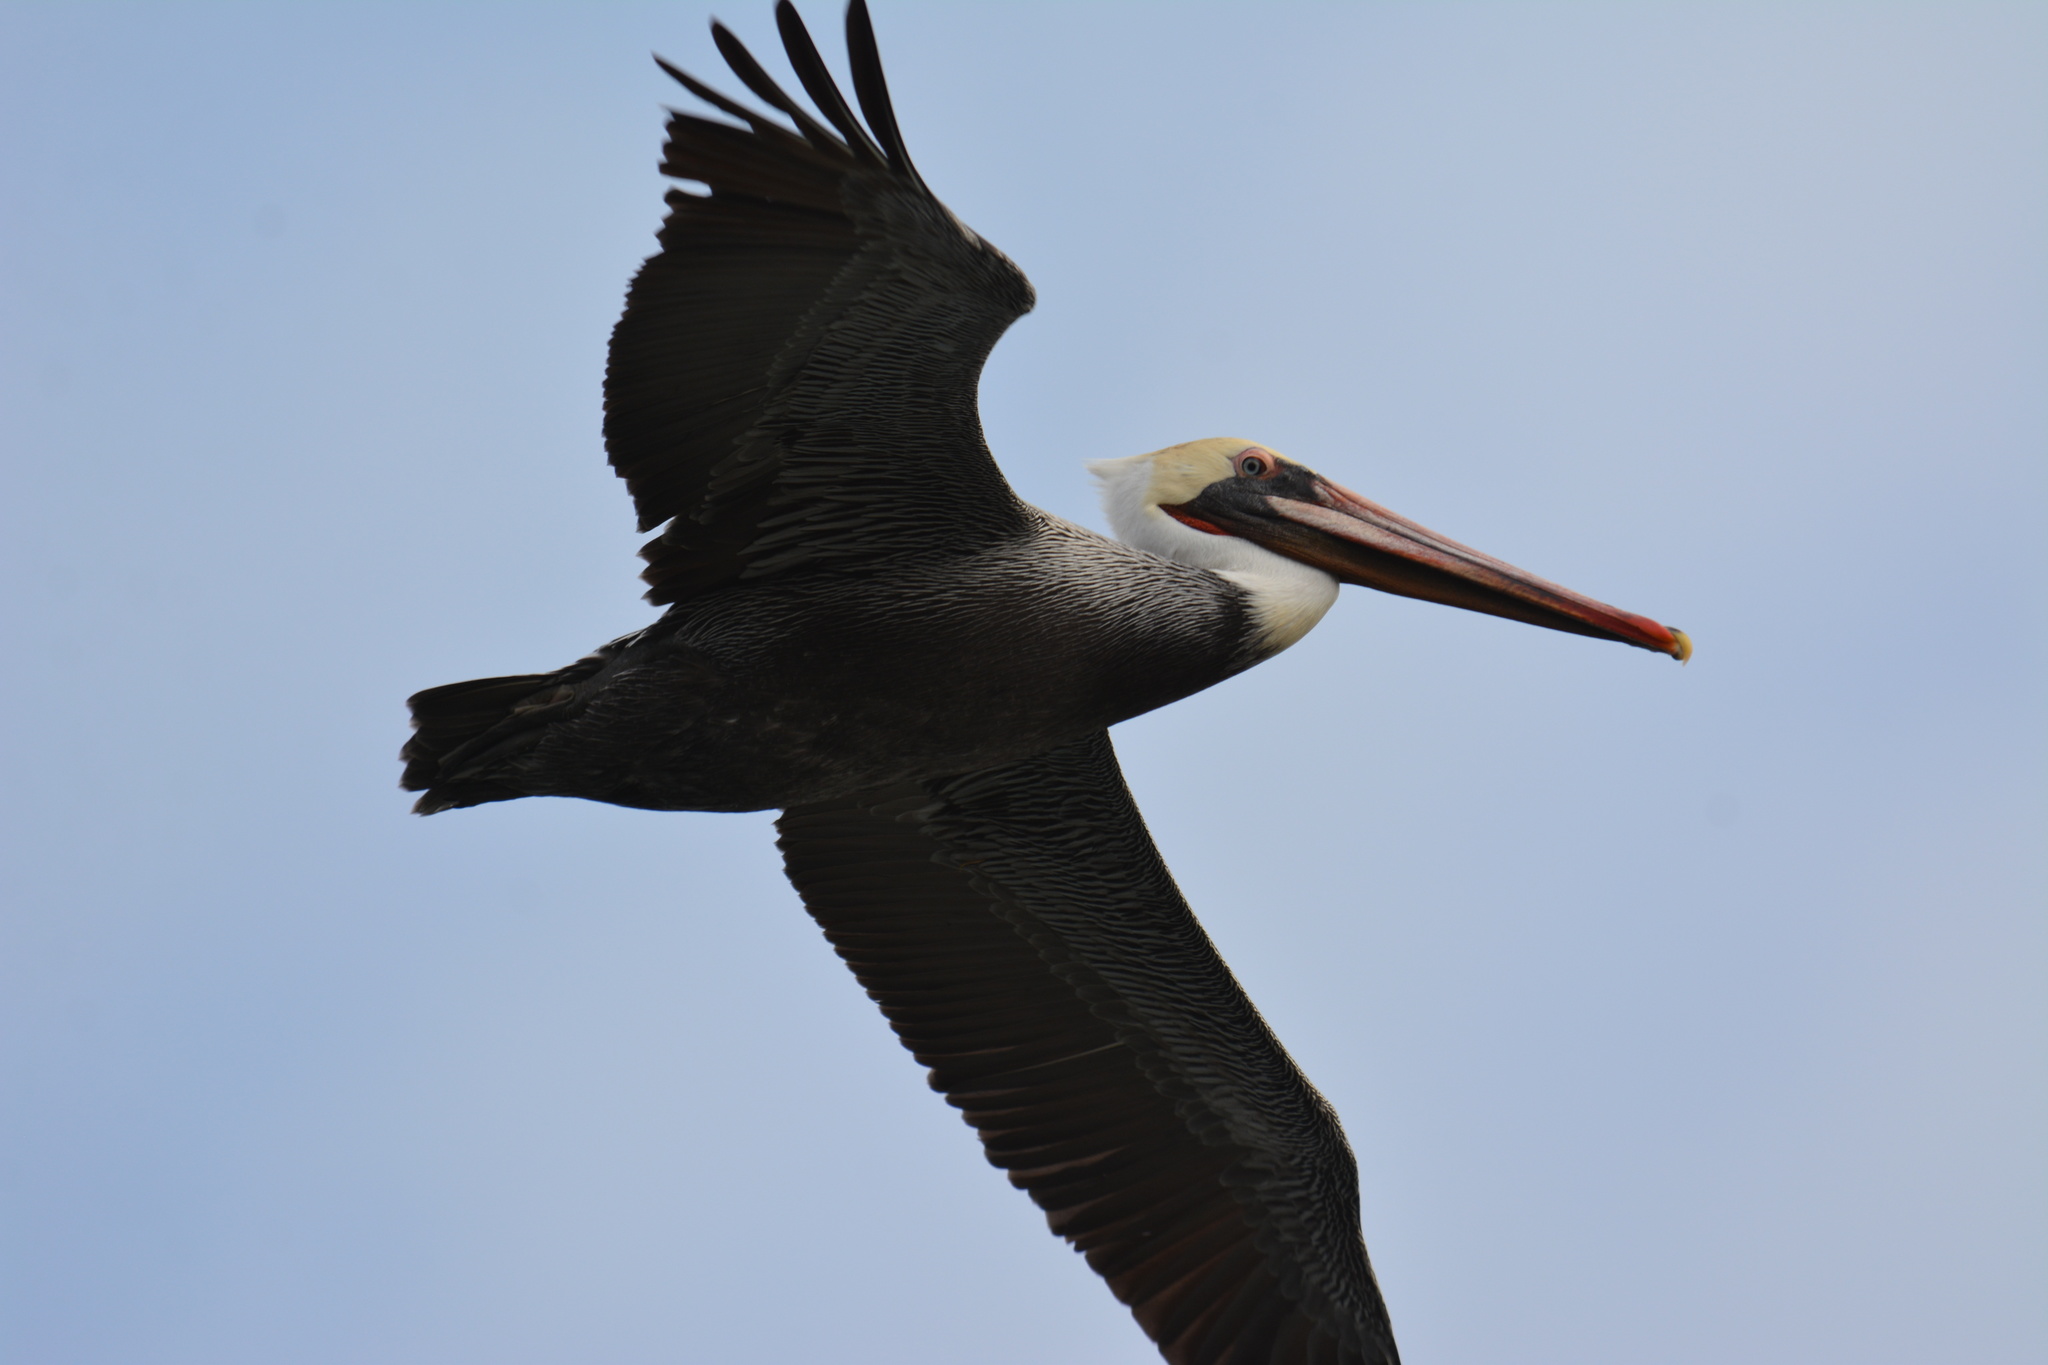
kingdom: Animalia
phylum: Chordata
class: Aves
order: Pelecaniformes
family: Pelecanidae
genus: Pelecanus
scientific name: Pelecanus occidentalis
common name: Brown pelican
